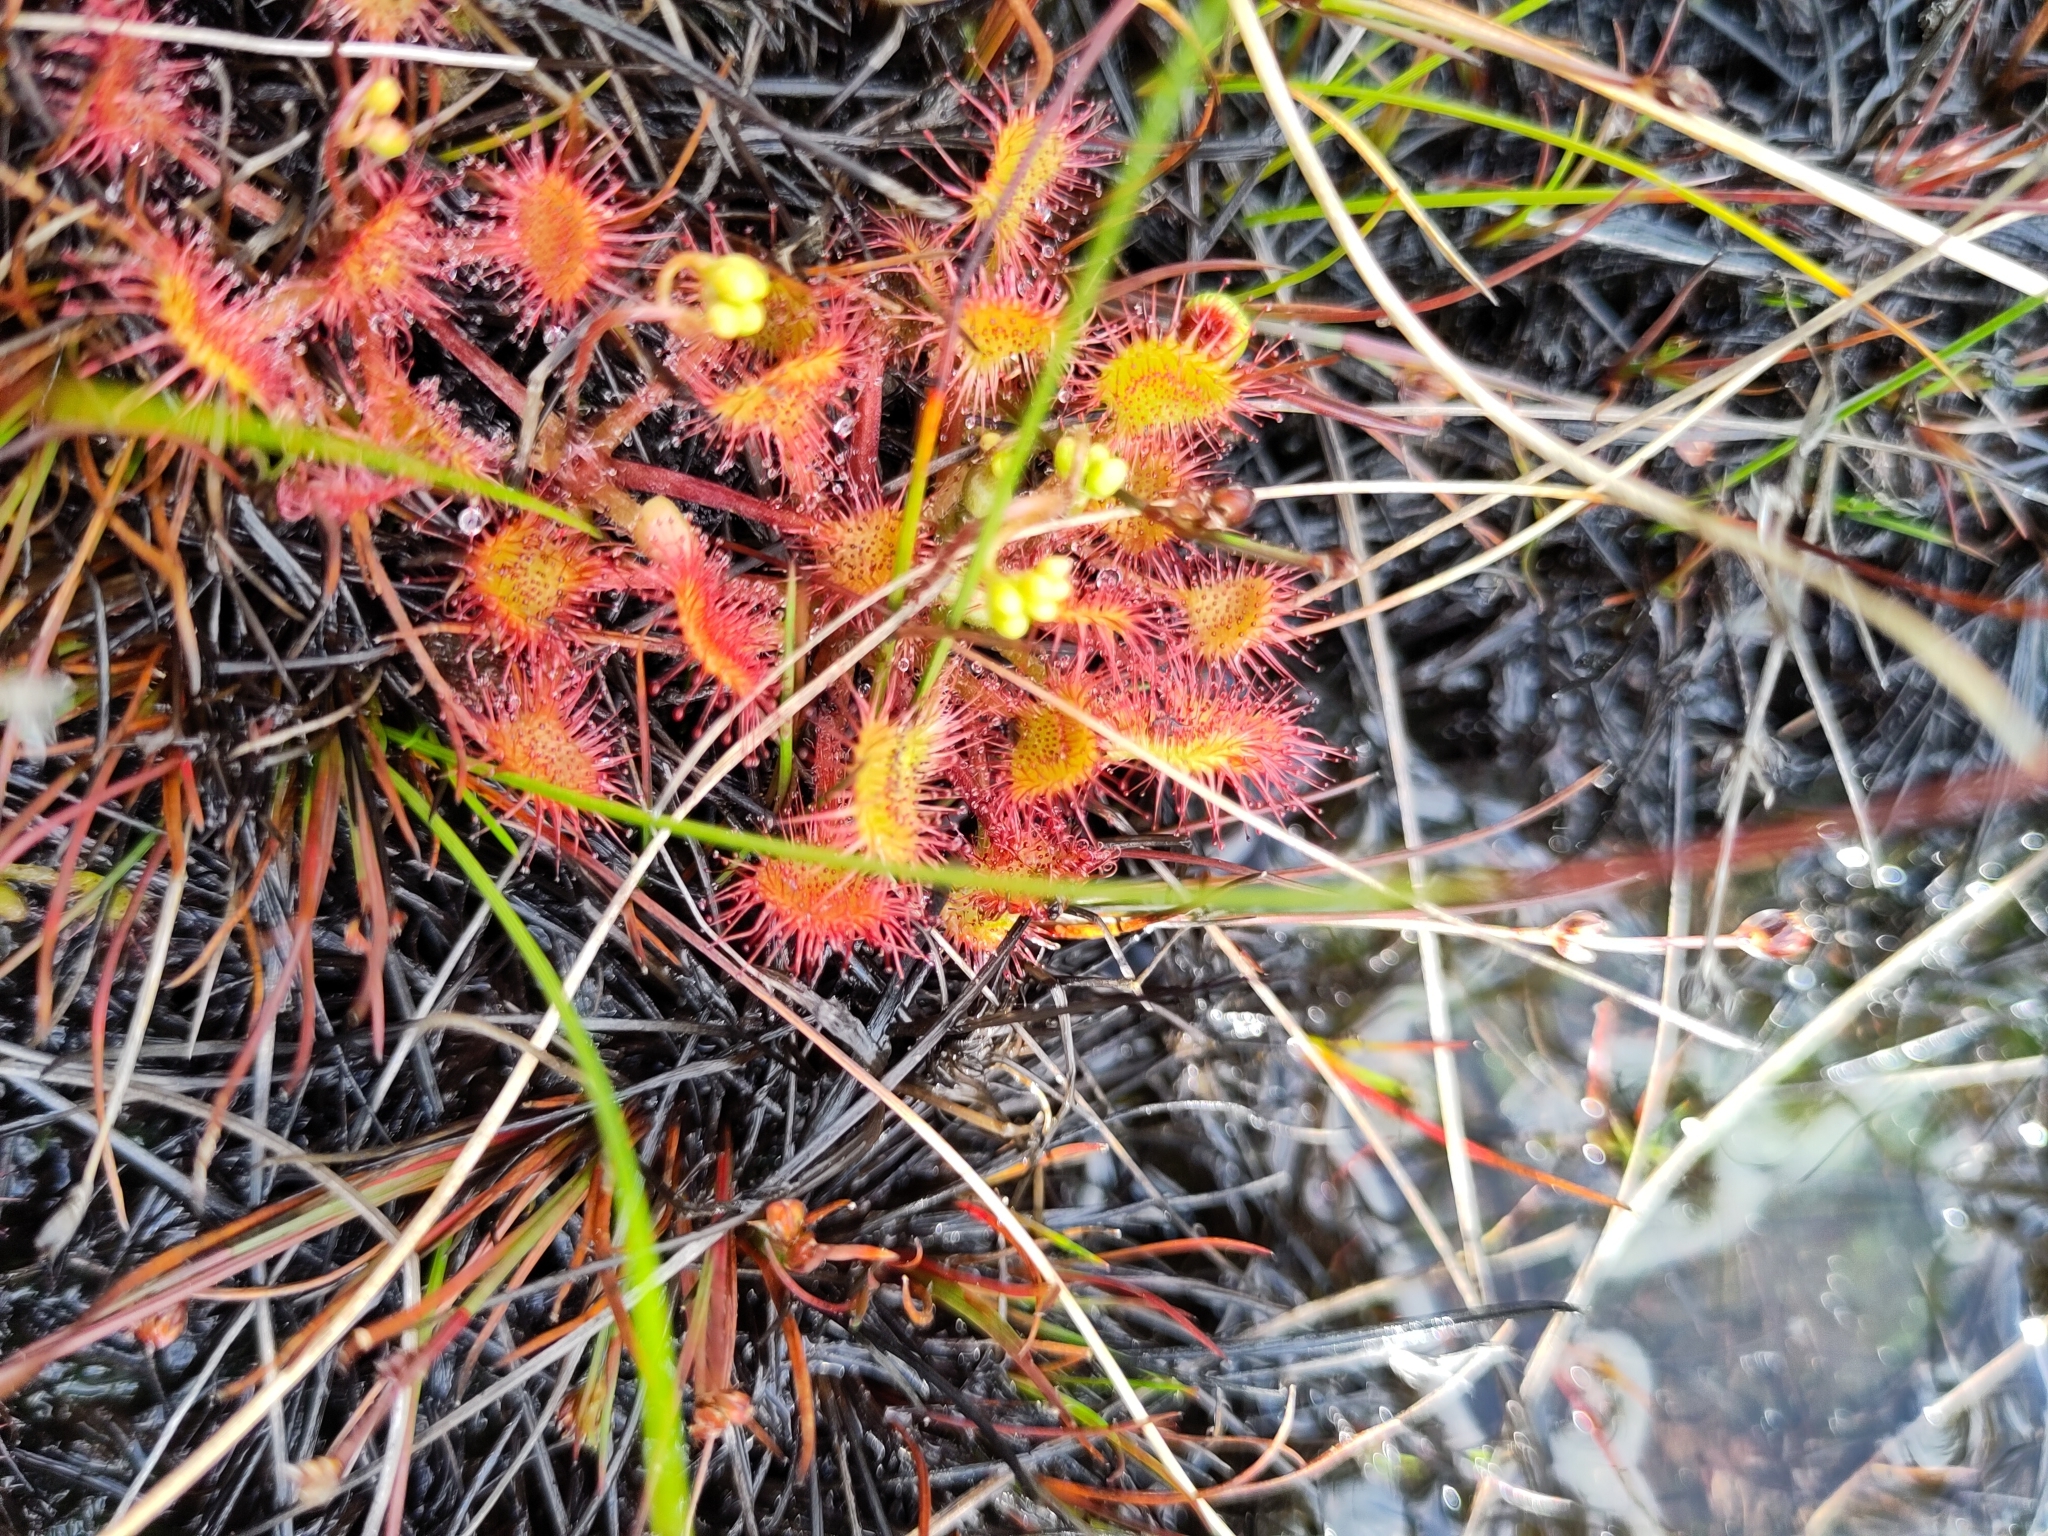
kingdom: Plantae
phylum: Tracheophyta
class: Magnoliopsida
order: Caryophyllales
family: Droseraceae
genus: Drosera
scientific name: Drosera rotundifolia
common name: Round-leaved sundew
